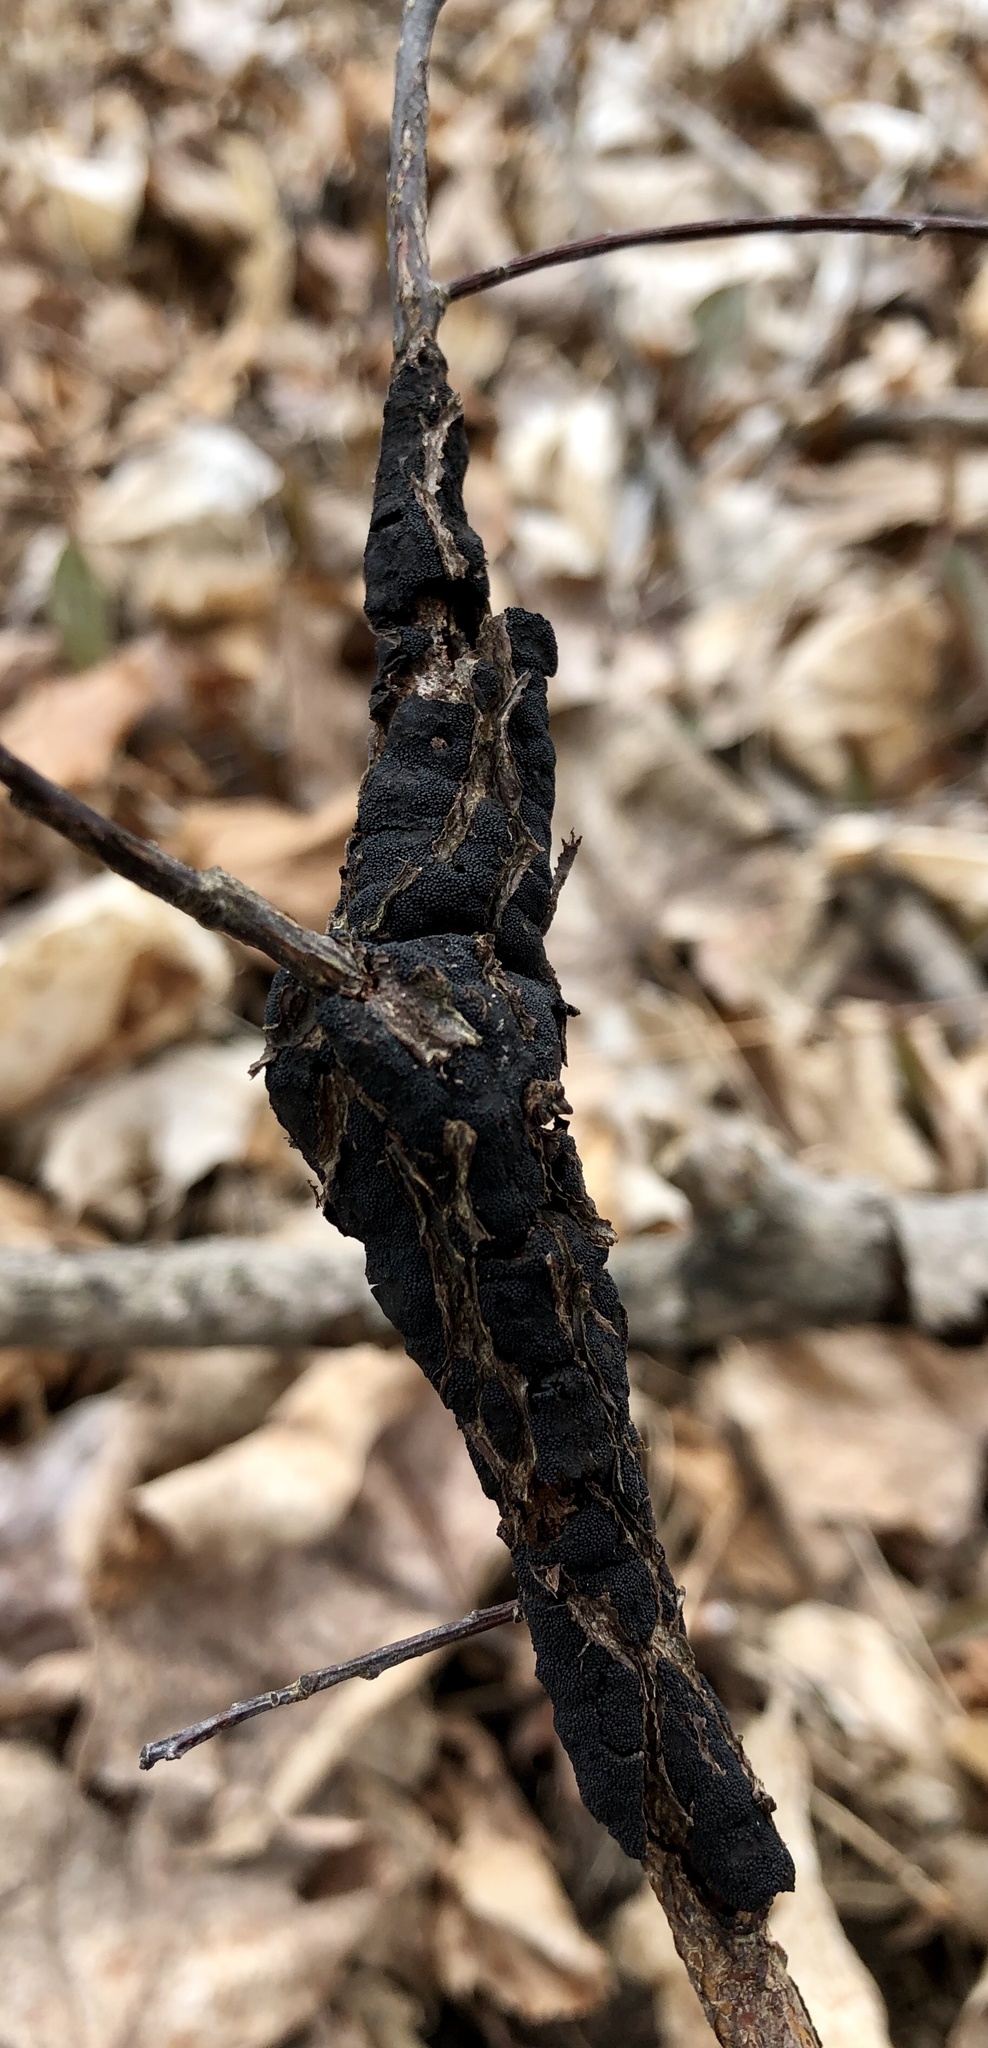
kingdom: Fungi
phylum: Ascomycota
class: Dothideomycetes
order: Venturiales
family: Venturiaceae
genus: Apiosporina
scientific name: Apiosporina morbosa
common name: Black knot
